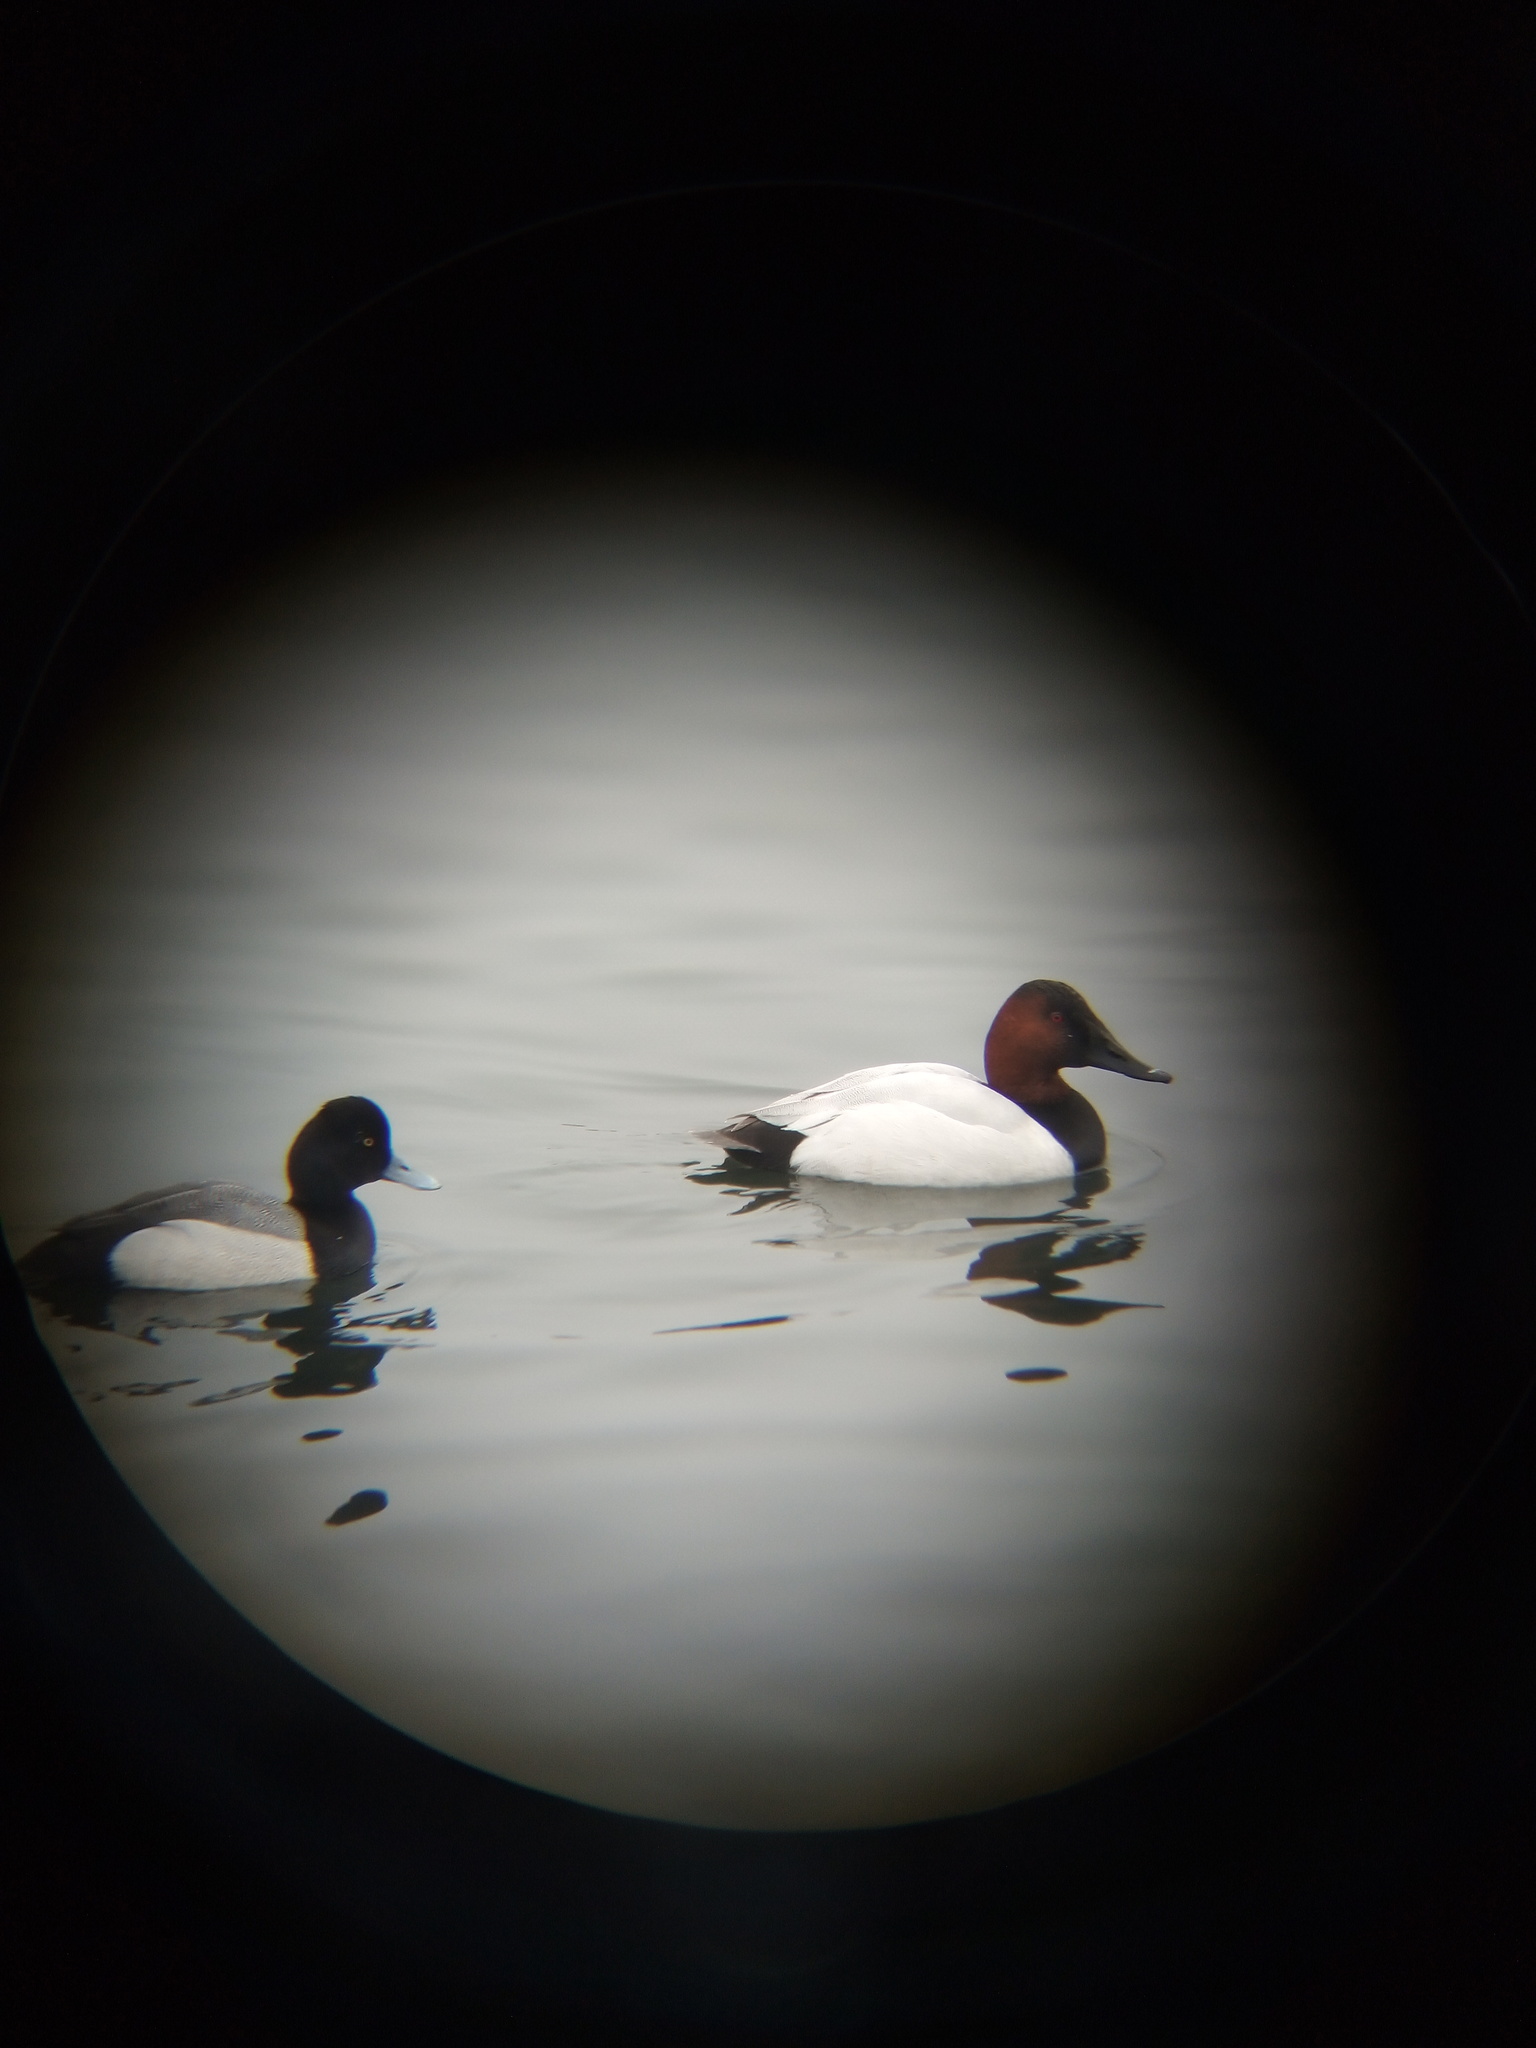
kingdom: Animalia
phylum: Chordata
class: Aves
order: Anseriformes
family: Anatidae
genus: Aythya
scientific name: Aythya affinis
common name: Lesser scaup
